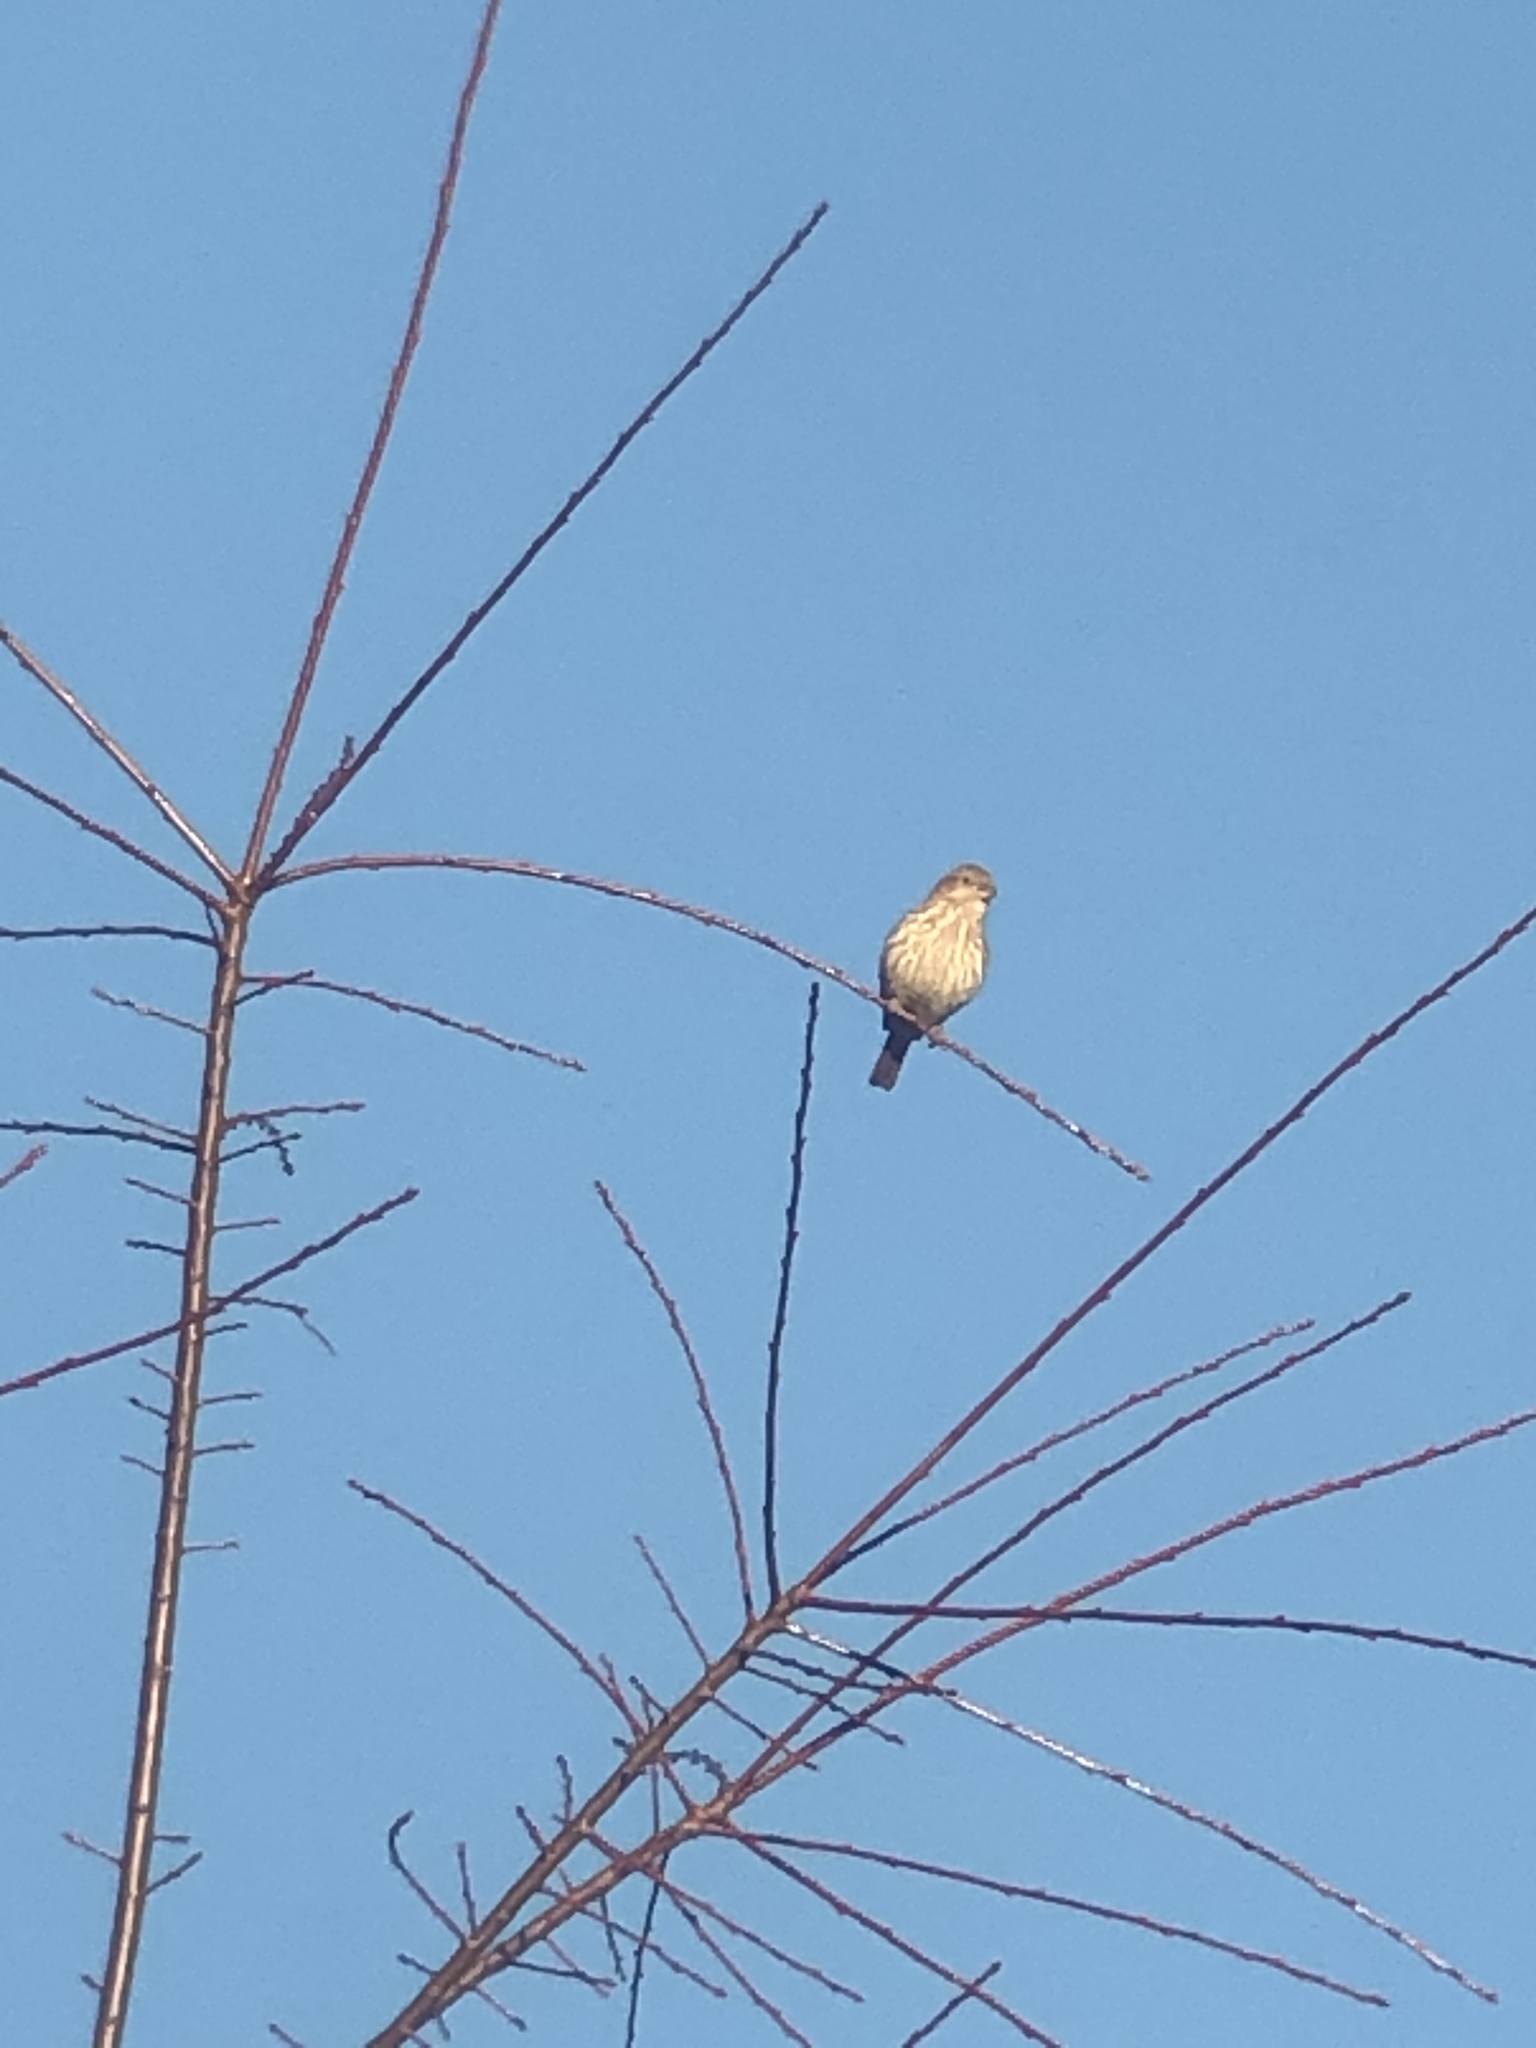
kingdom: Animalia
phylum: Chordata
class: Aves
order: Passeriformes
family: Fringillidae
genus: Haemorhous
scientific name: Haemorhous mexicanus
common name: House finch
